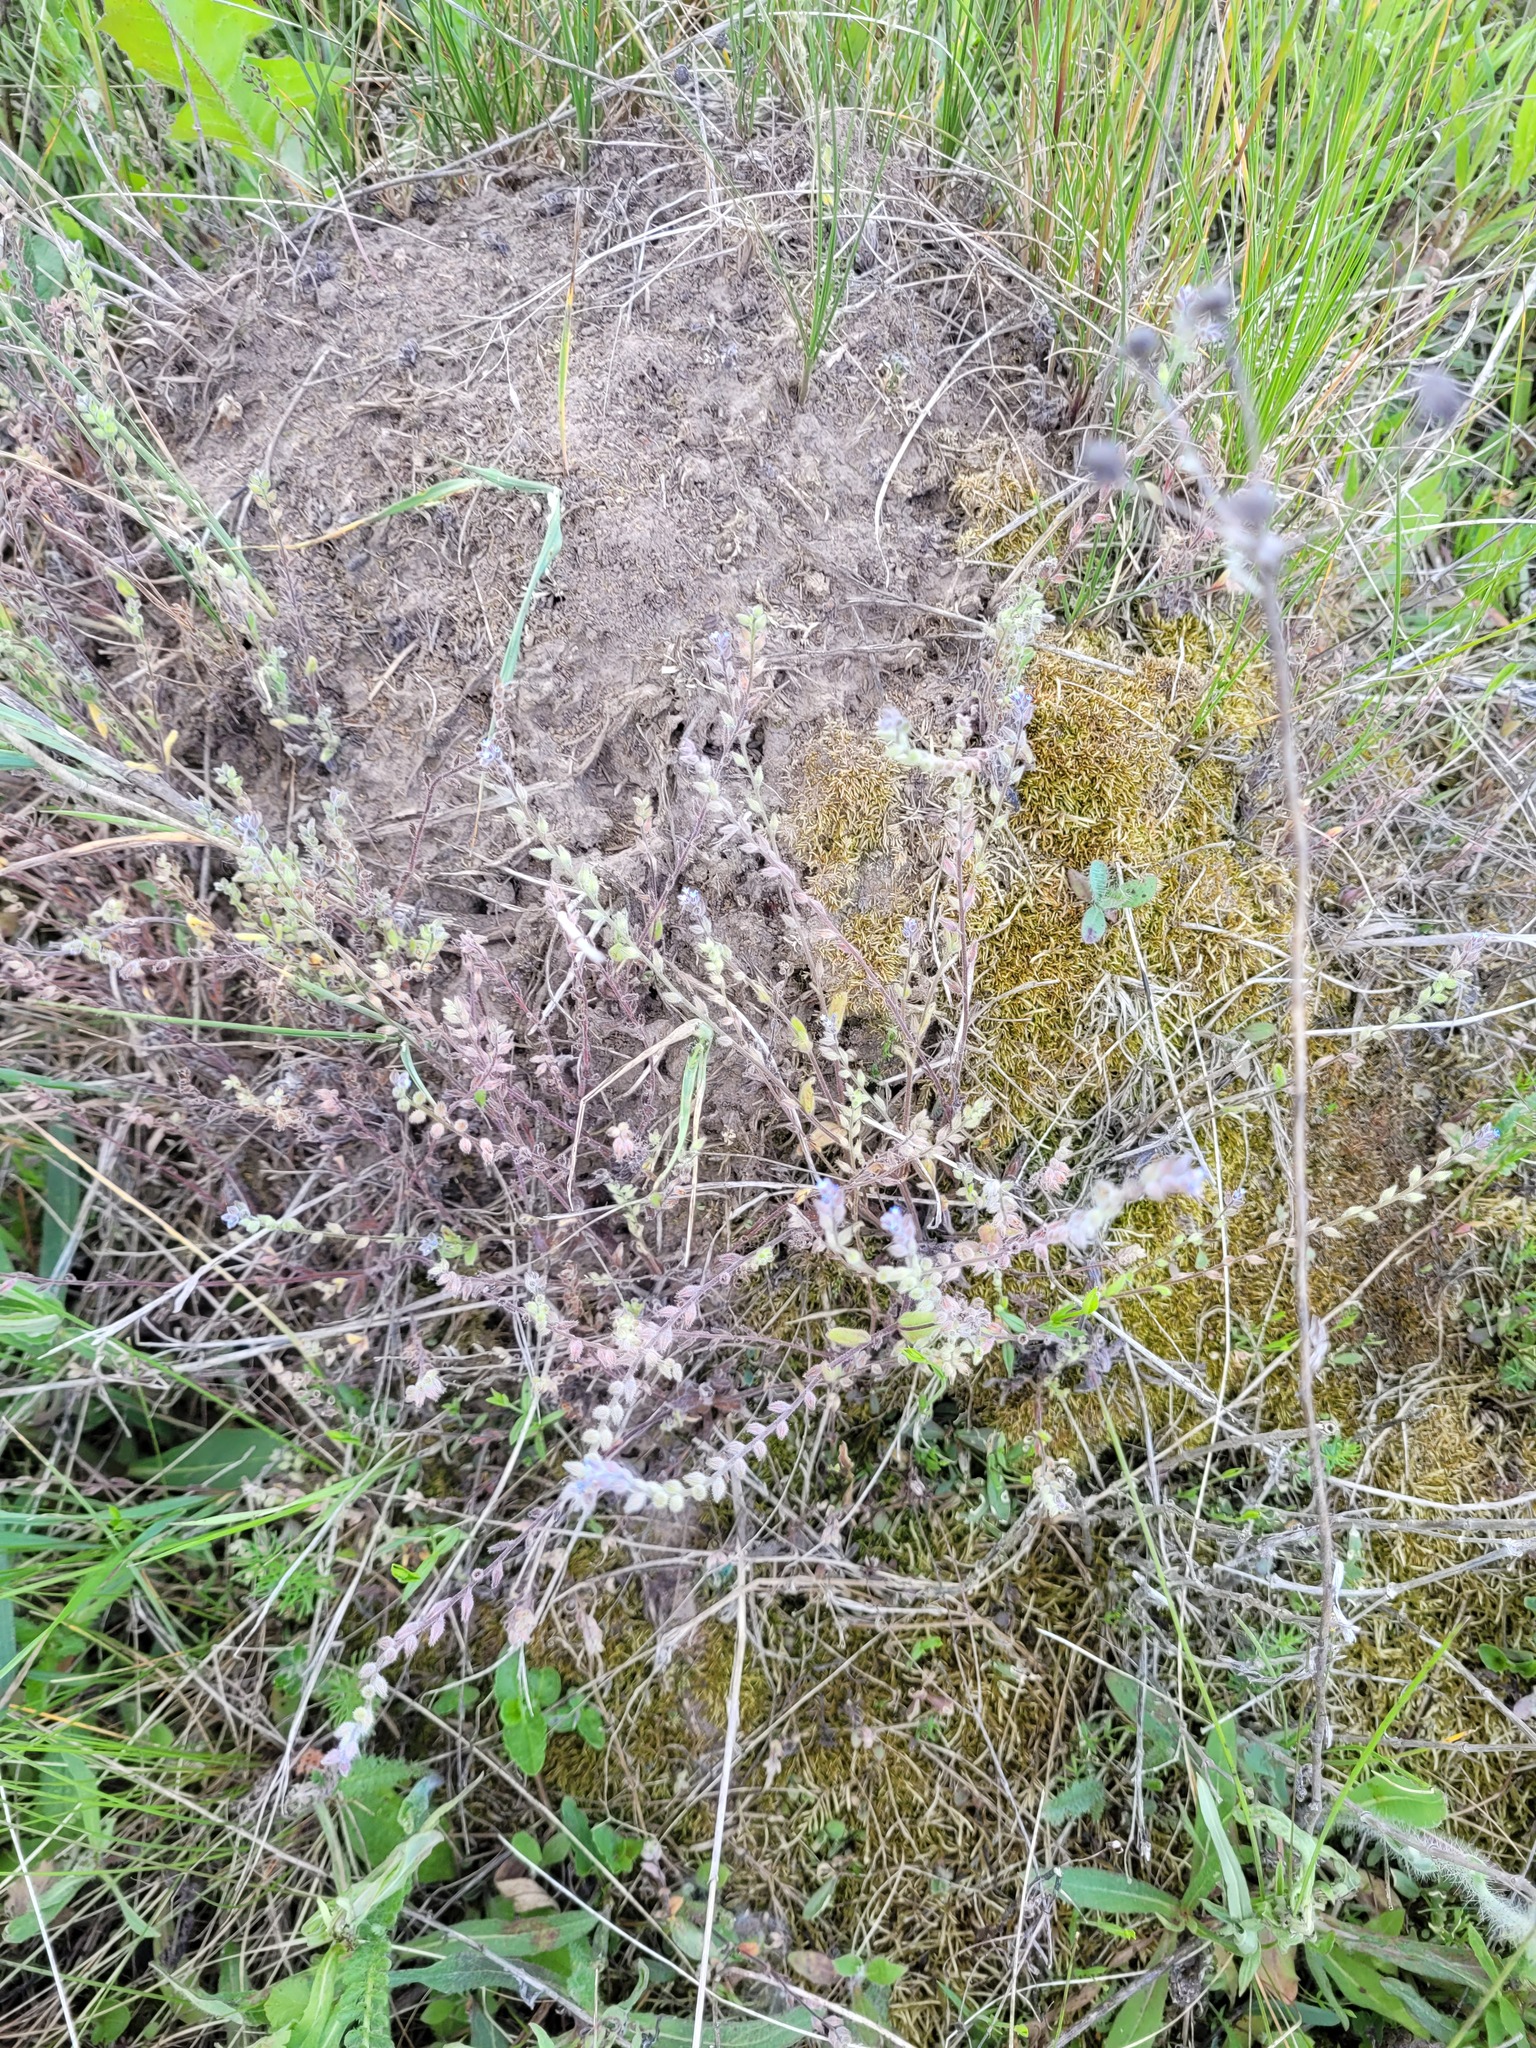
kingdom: Plantae
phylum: Tracheophyta
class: Magnoliopsida
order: Boraginales
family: Boraginaceae
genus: Myosotis
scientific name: Myosotis stricta
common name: Strict forget-me-not
